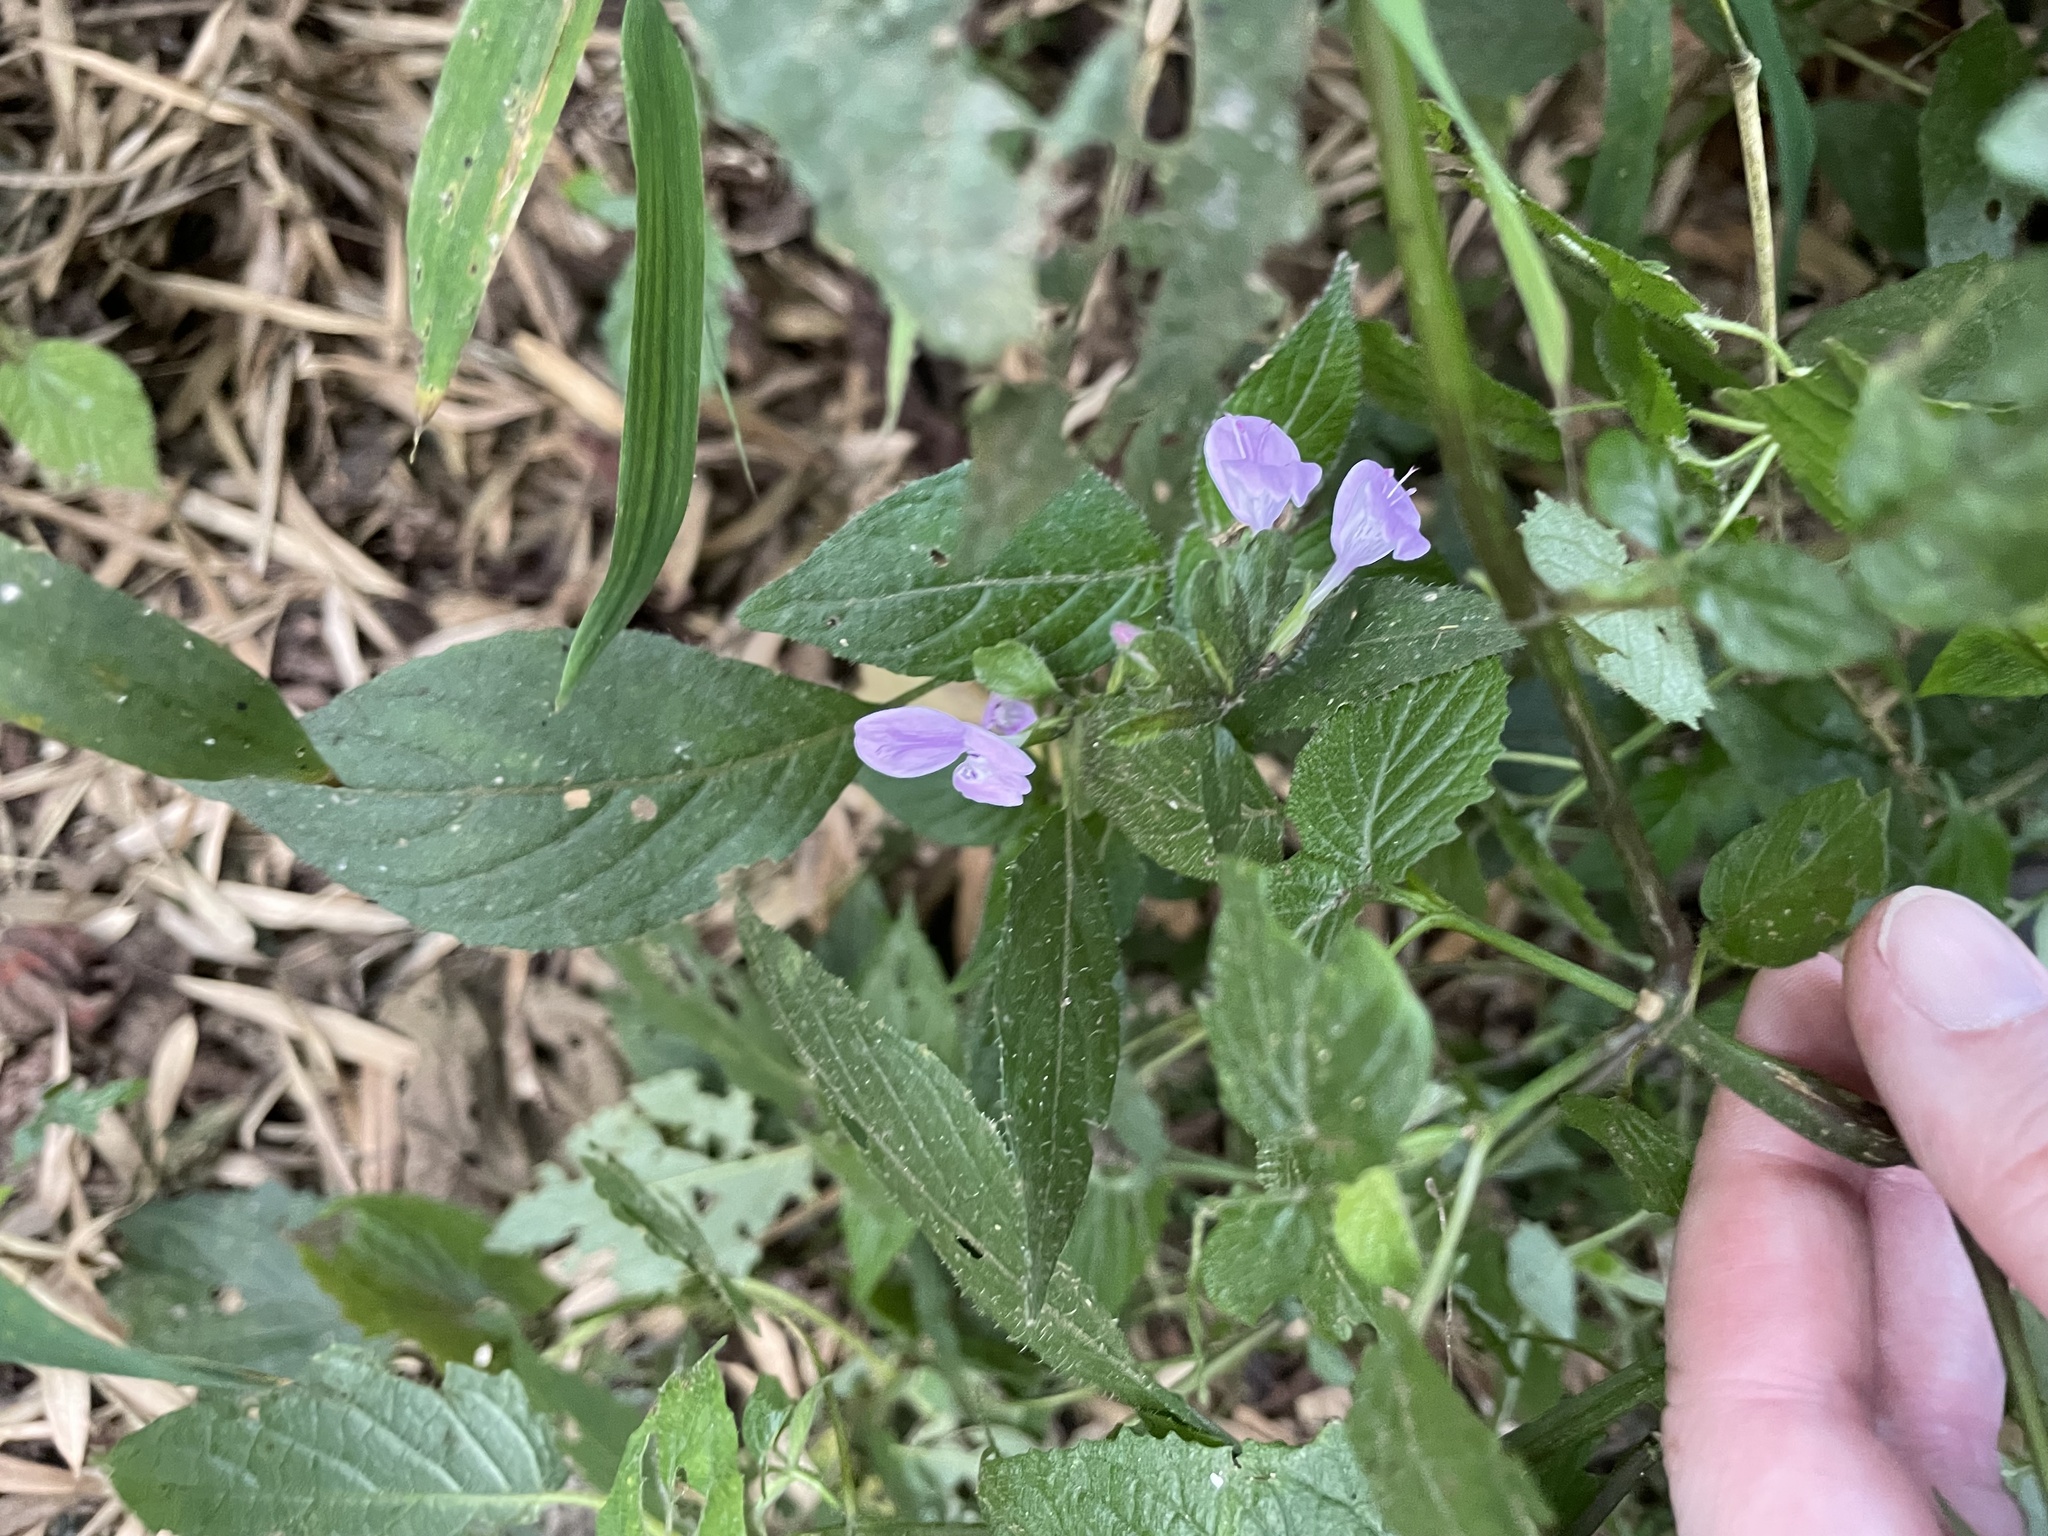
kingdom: Plantae
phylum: Tracheophyta
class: Magnoliopsida
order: Lamiales
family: Acanthaceae
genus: Hypoestes
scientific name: Hypoestes triflora
